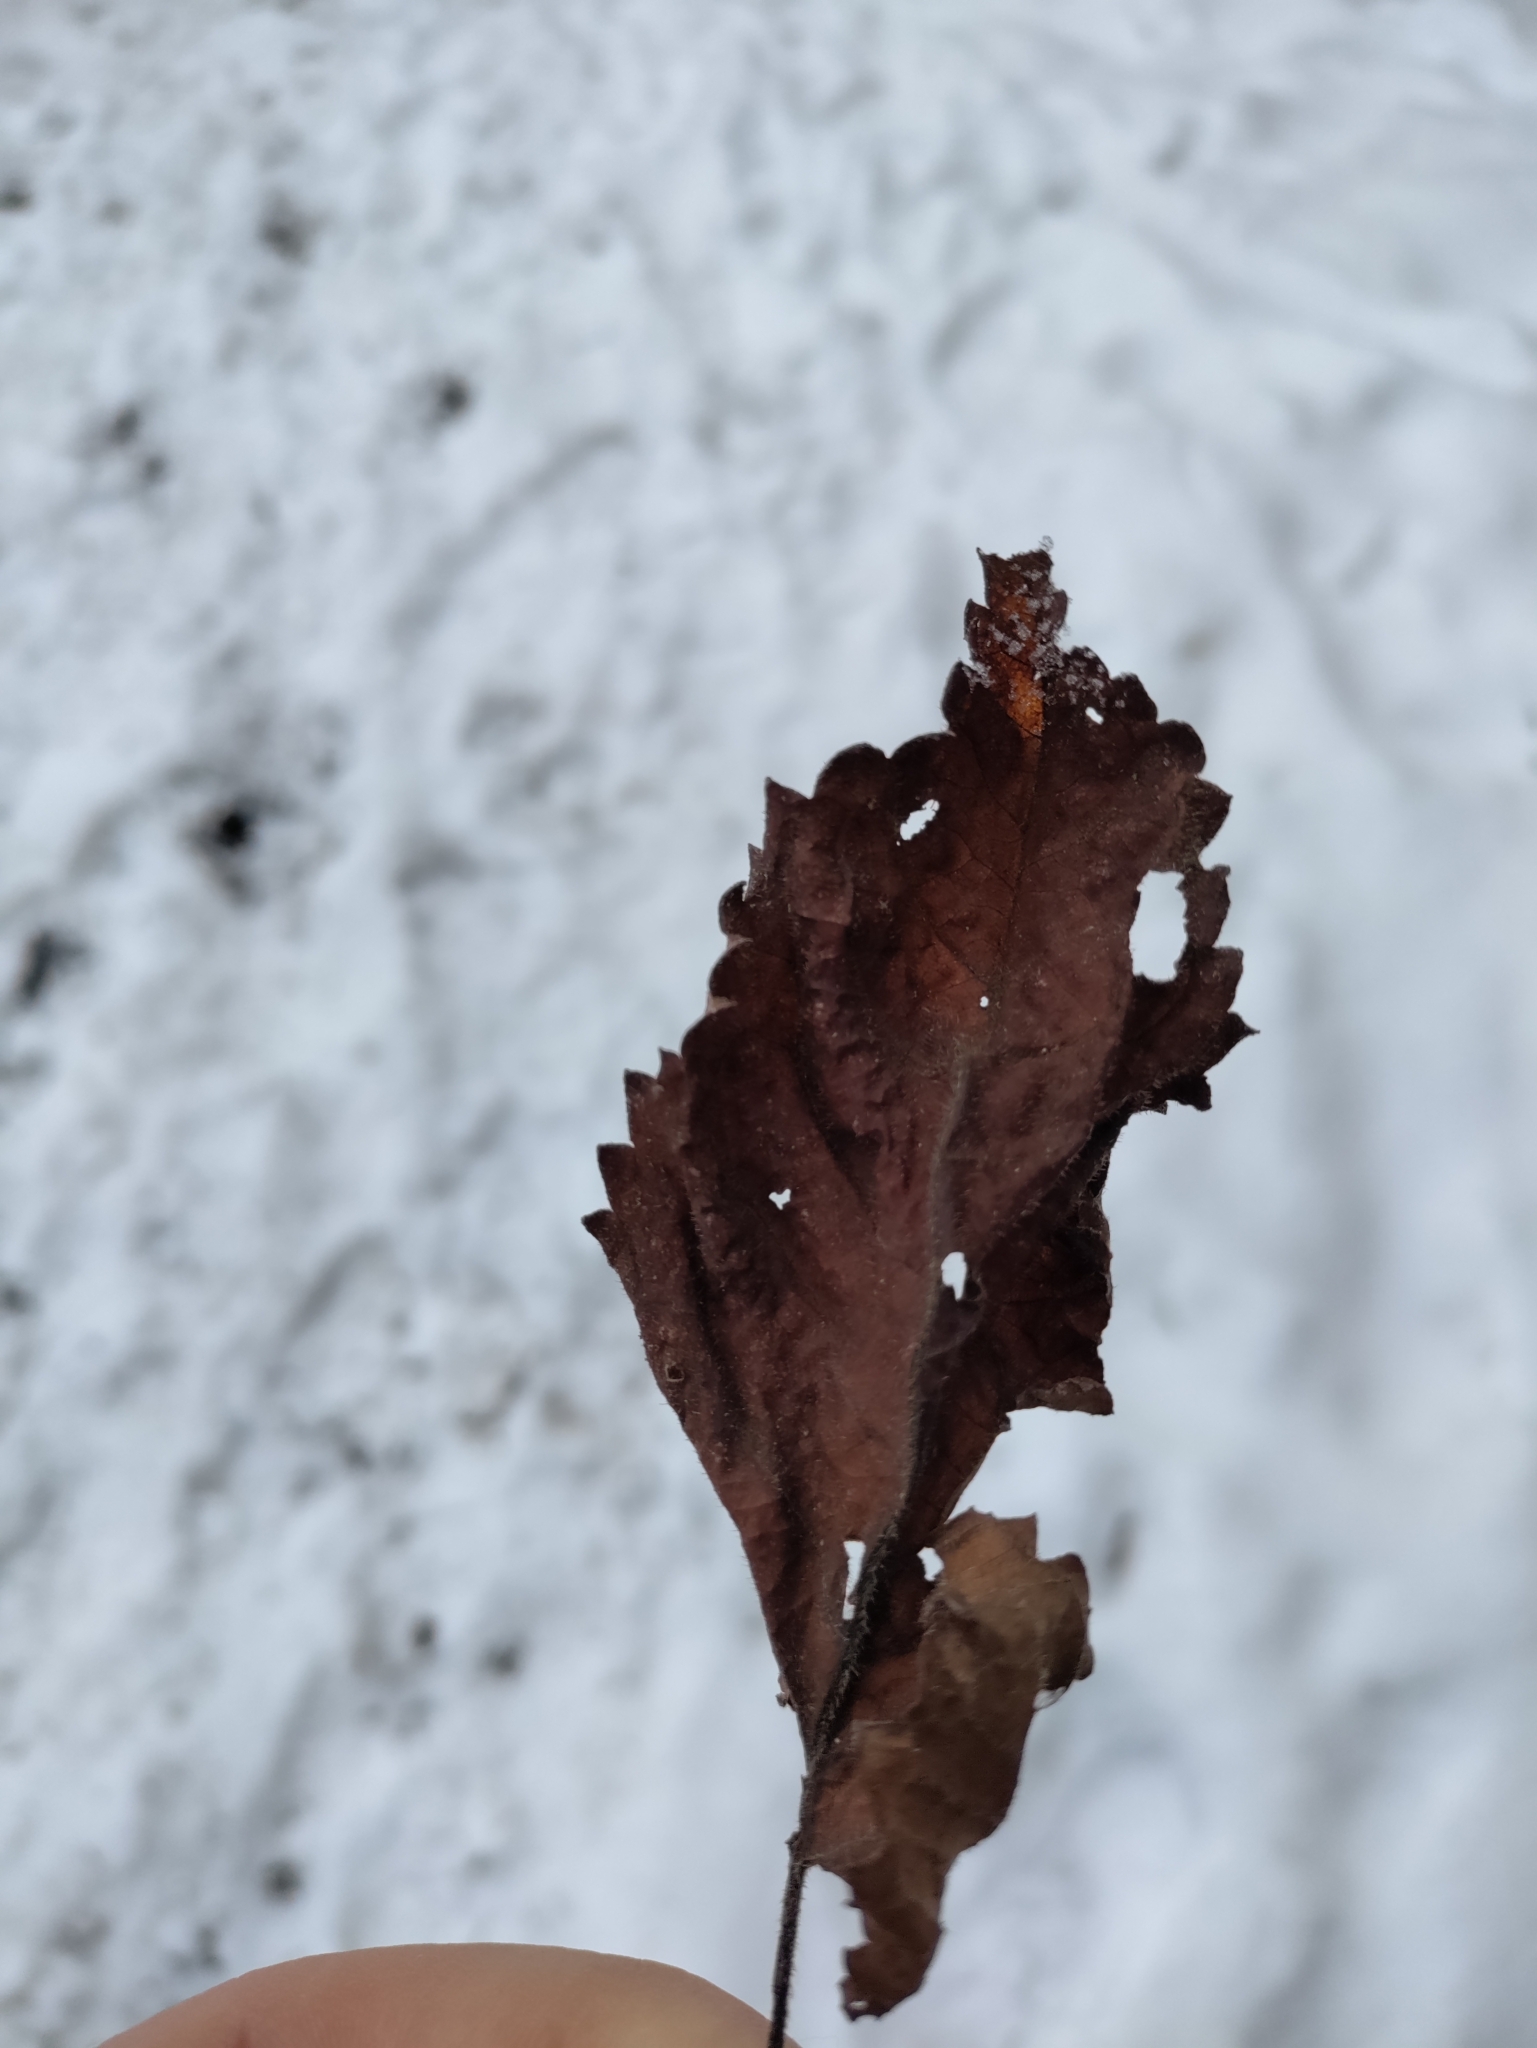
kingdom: Plantae
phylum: Tracheophyta
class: Magnoliopsida
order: Lamiales
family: Lamiaceae
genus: Salvia
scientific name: Salvia glutinosa
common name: Sticky clary
